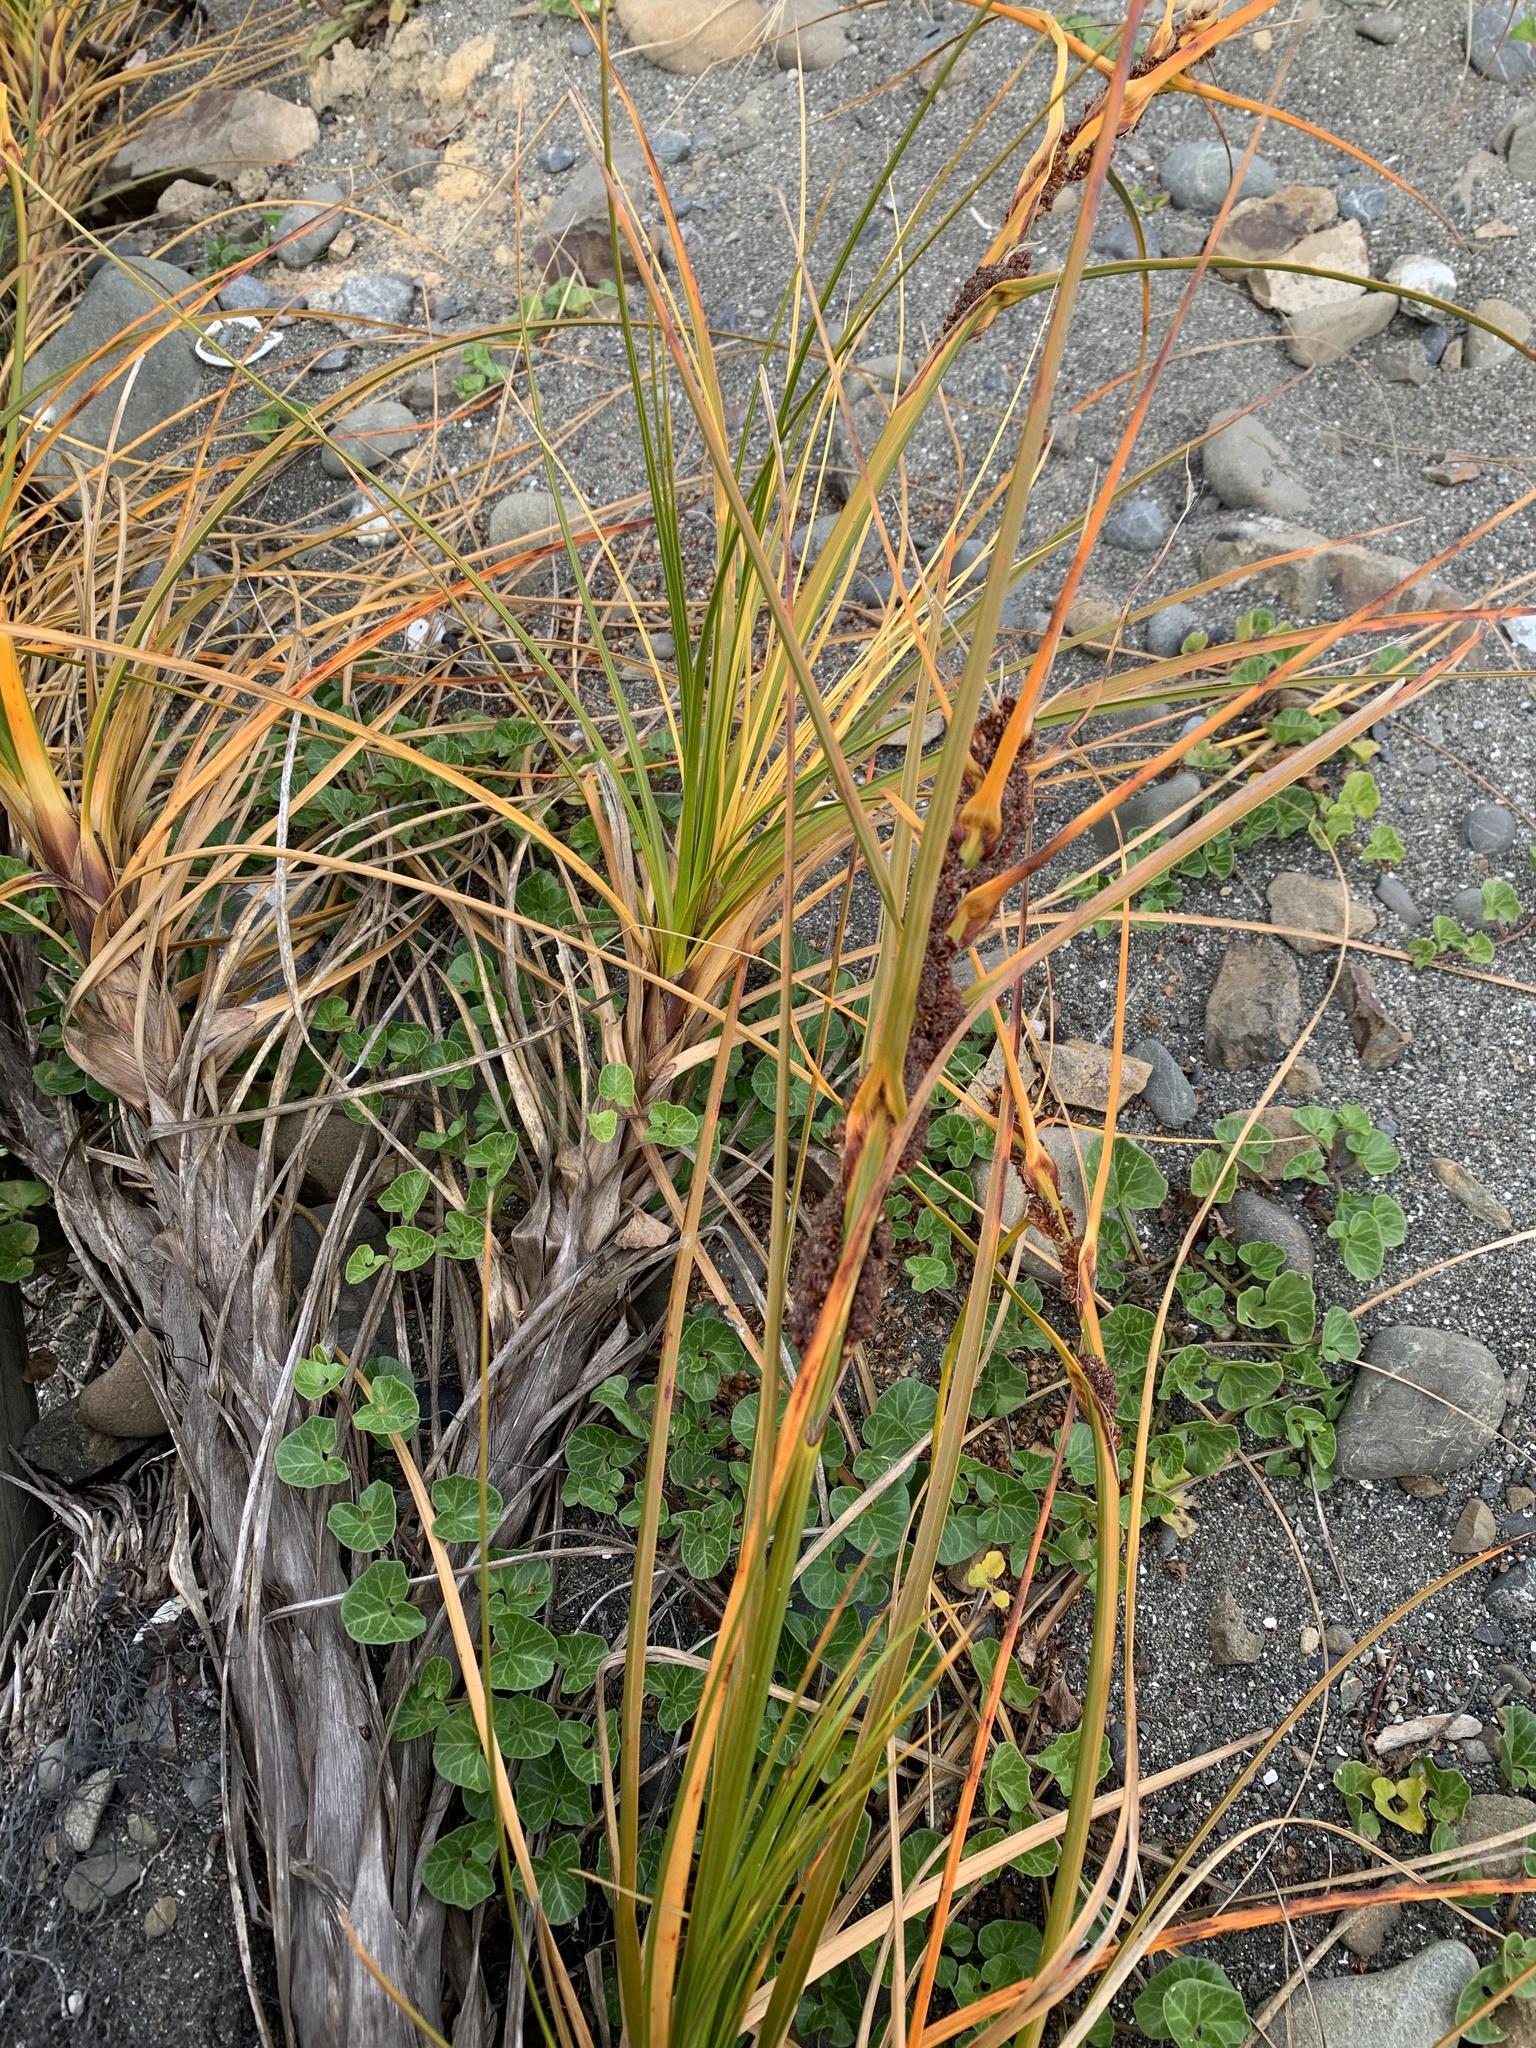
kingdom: Plantae
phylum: Tracheophyta
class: Liliopsida
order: Poales
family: Cyperaceae
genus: Ficinia
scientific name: Ficinia spiralis
